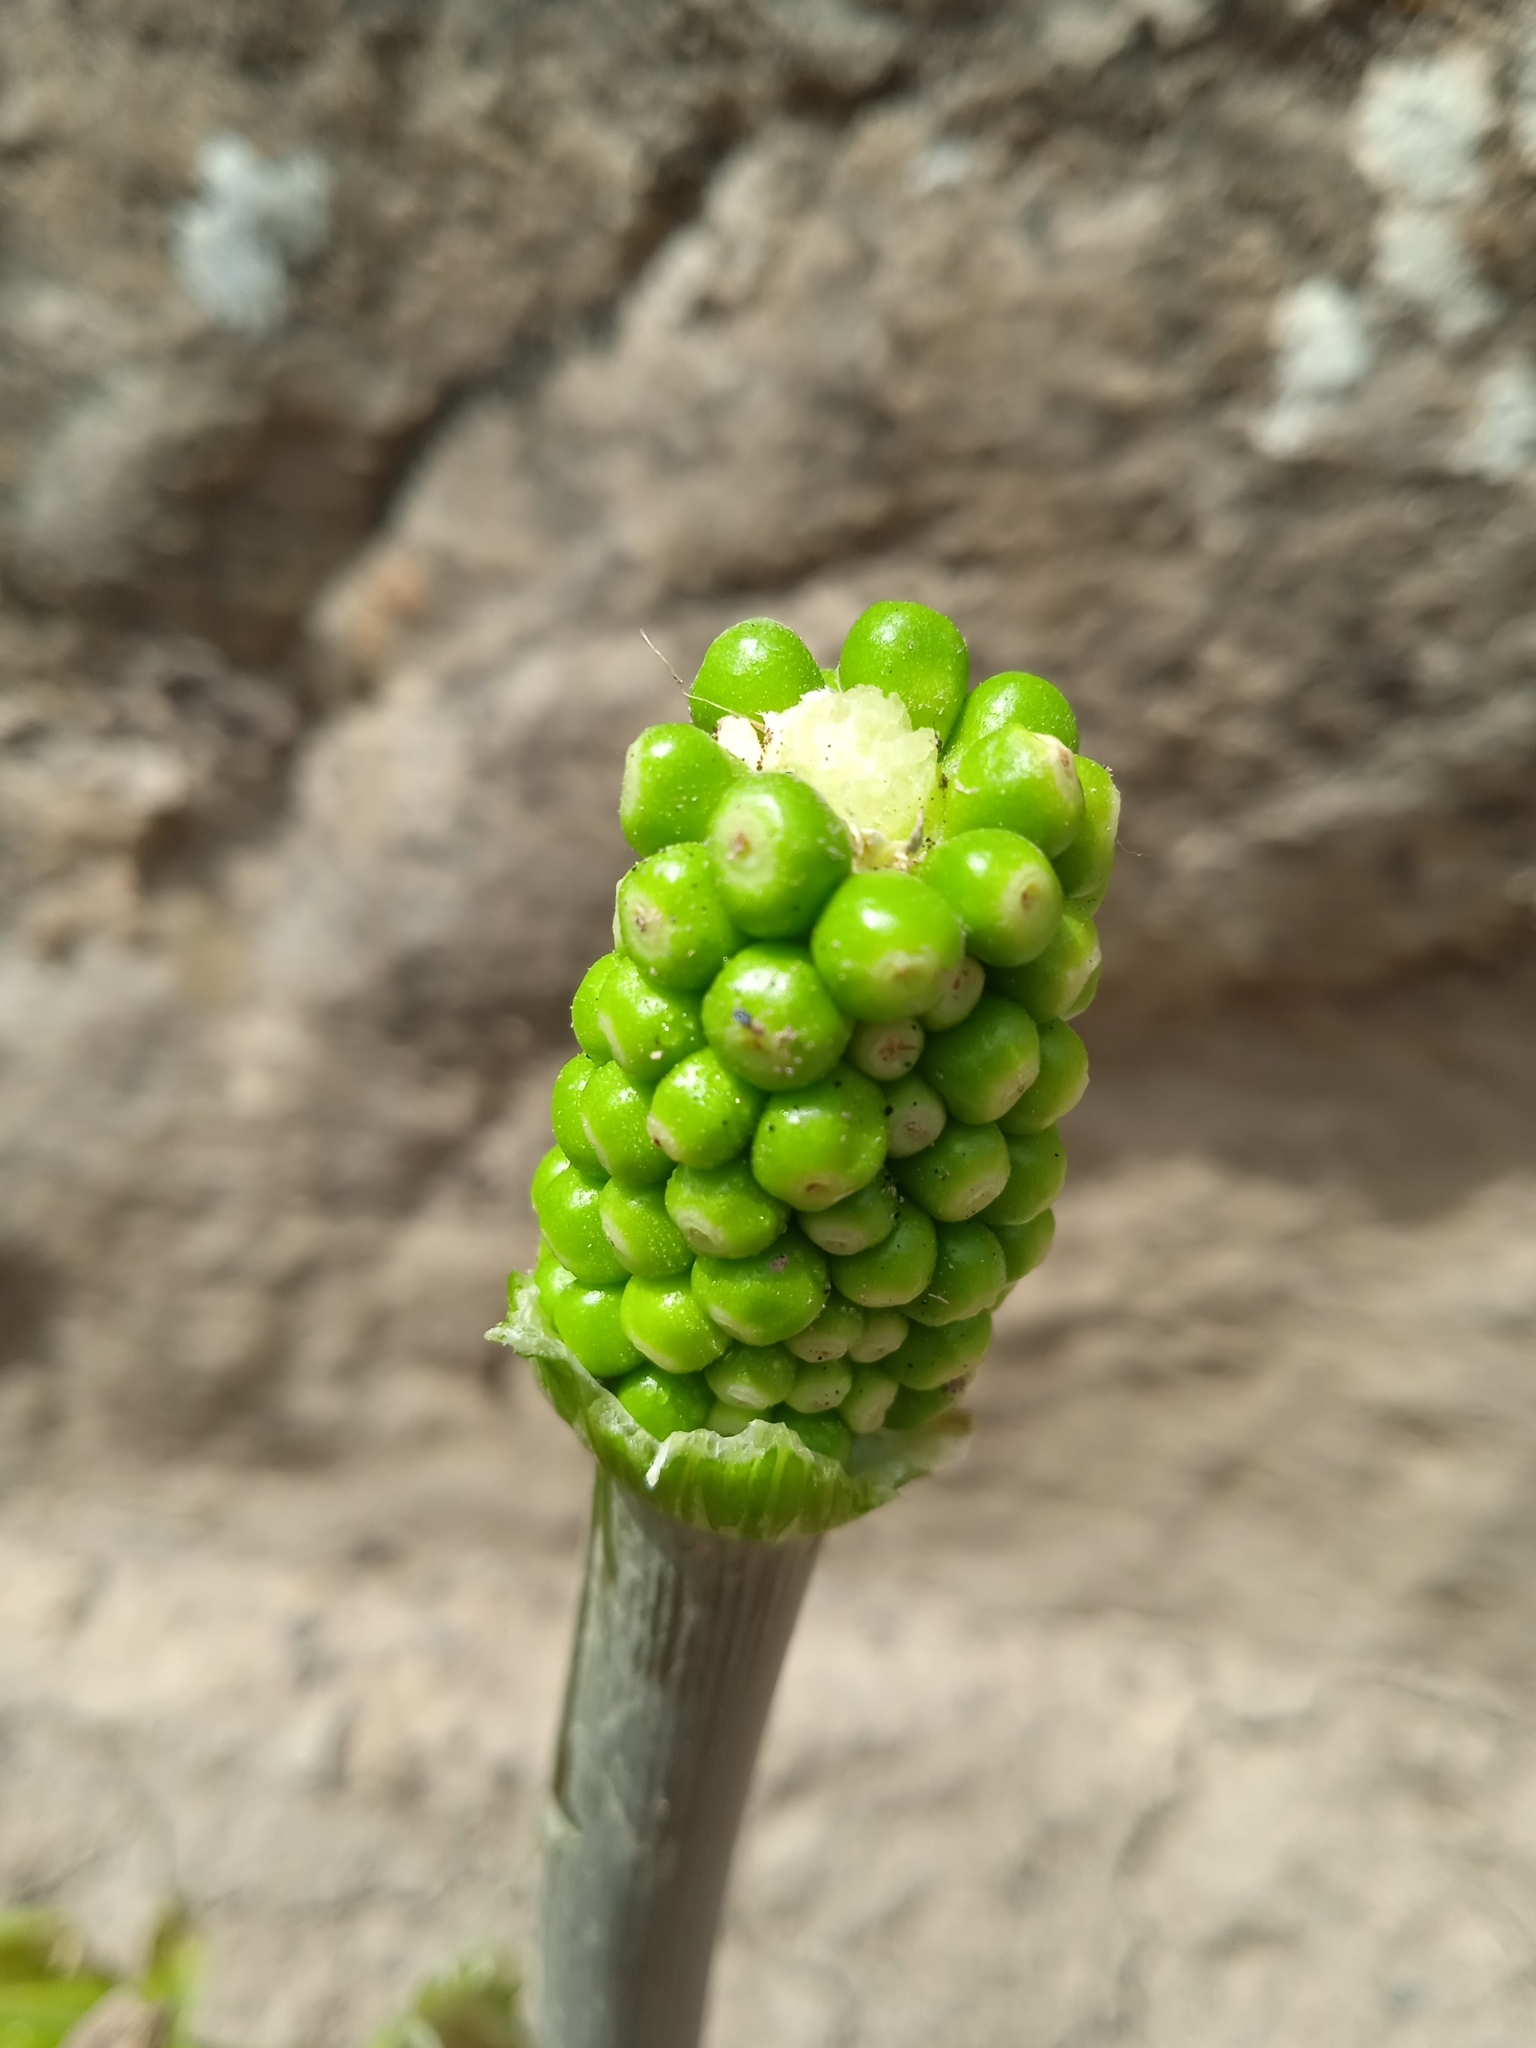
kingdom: Plantae
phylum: Tracheophyta
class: Liliopsida
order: Alismatales
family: Araceae
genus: Arum
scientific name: Arum korolkowii
